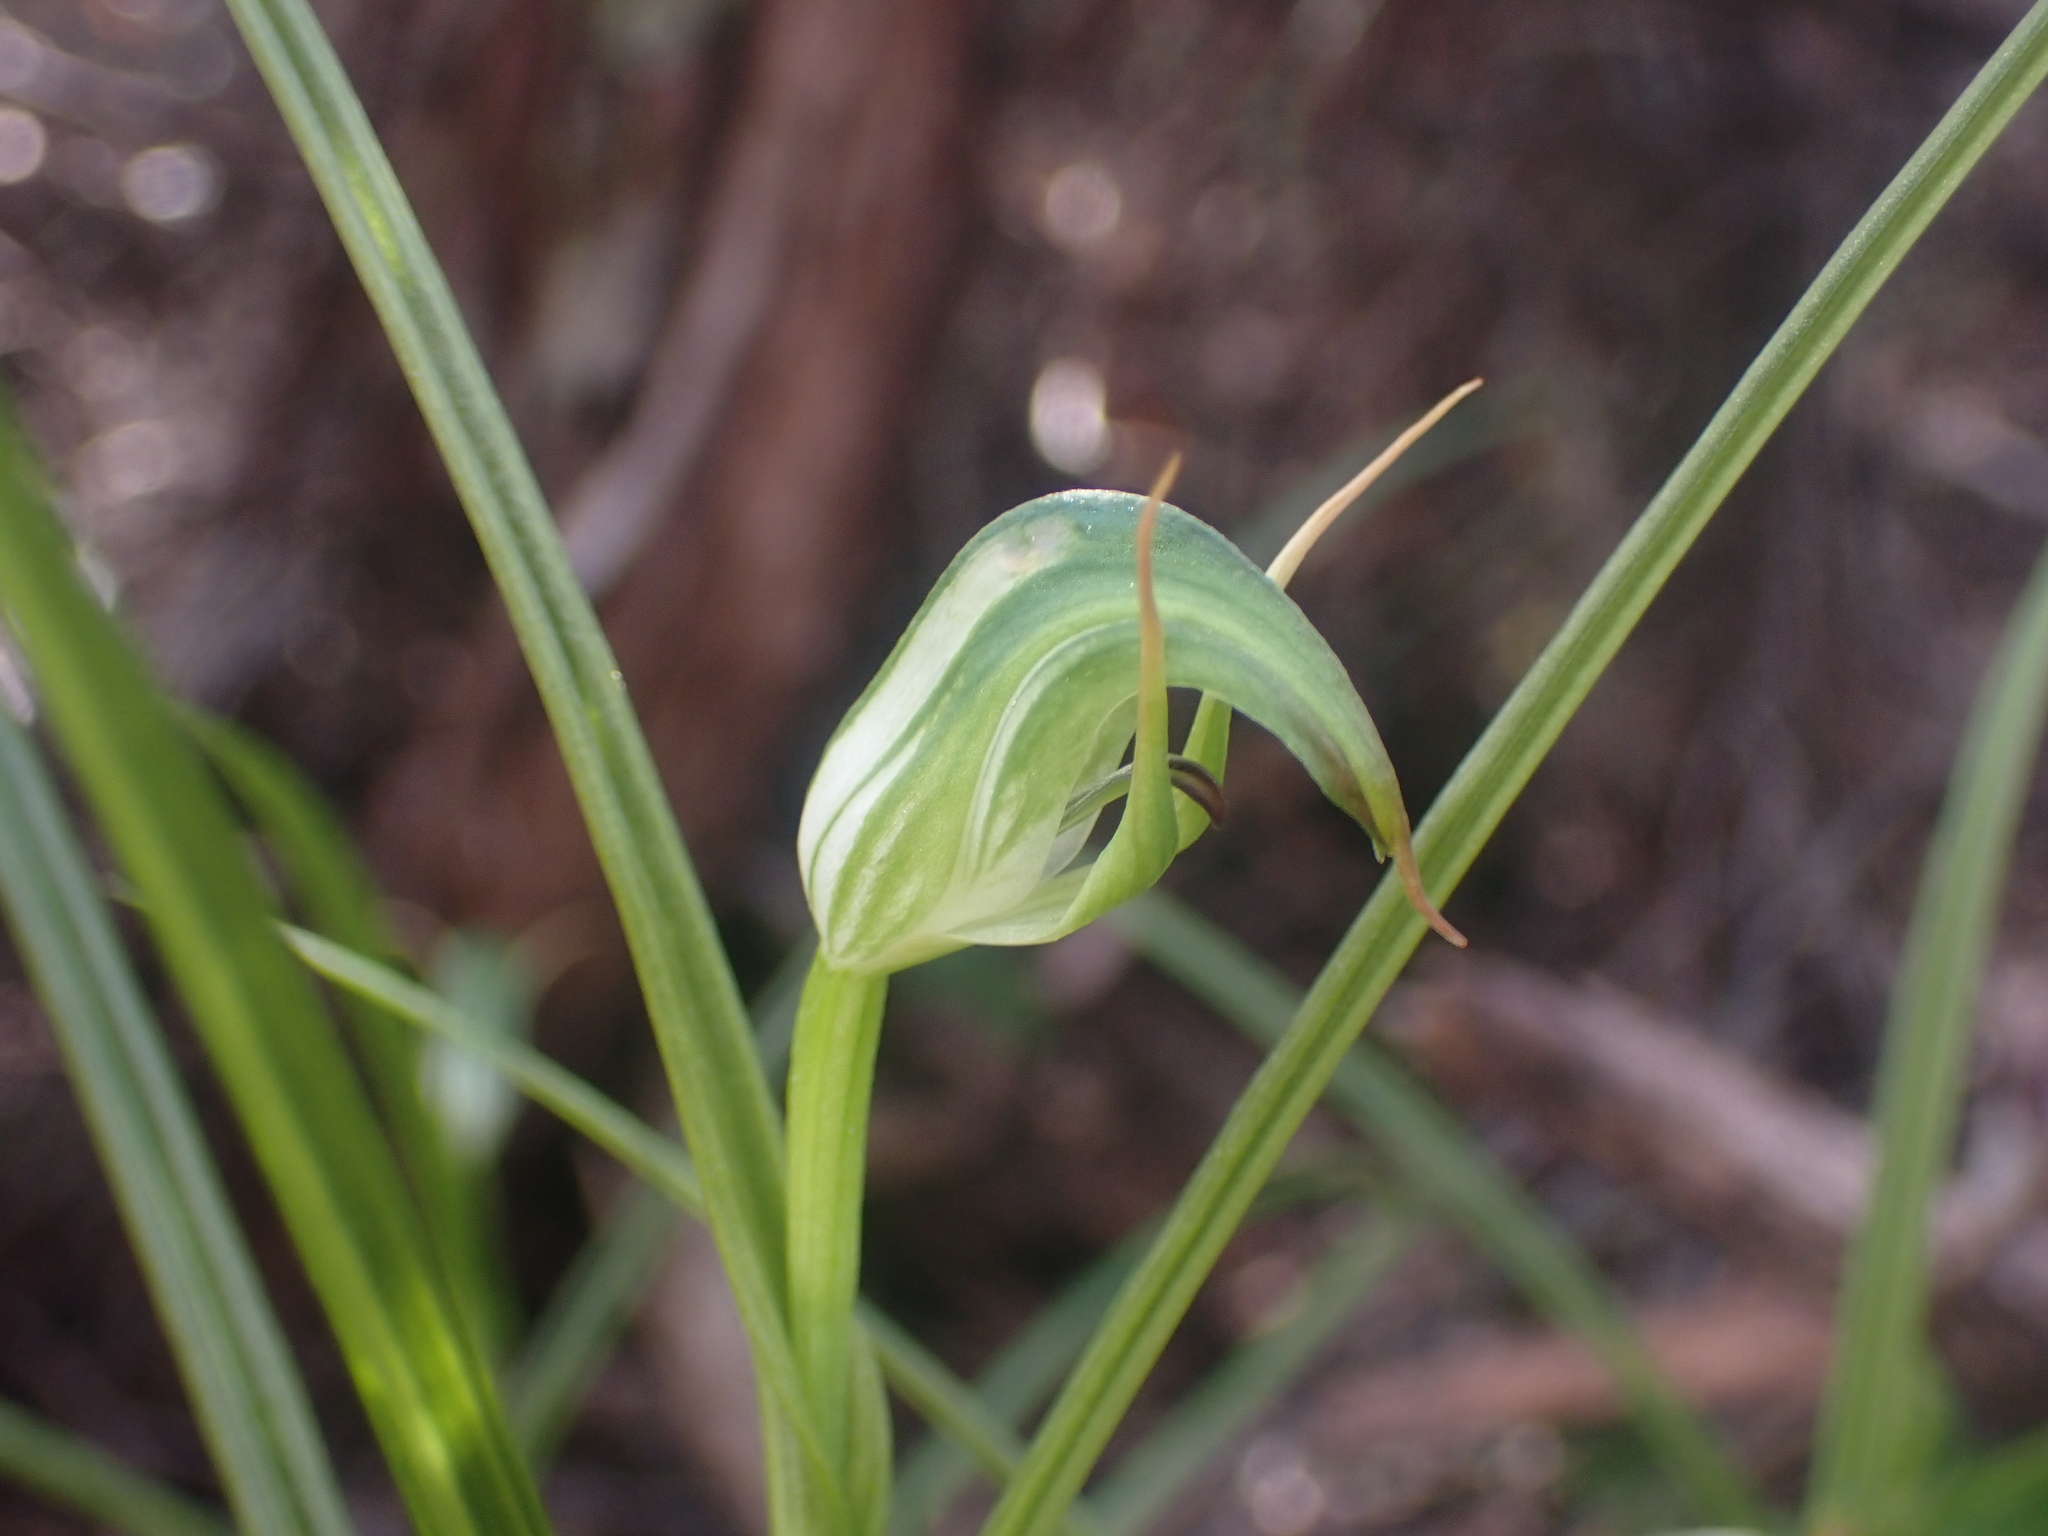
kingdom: Plantae
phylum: Tracheophyta
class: Liliopsida
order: Asparagales
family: Orchidaceae
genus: Pterostylis
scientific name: Pterostylis graminea
